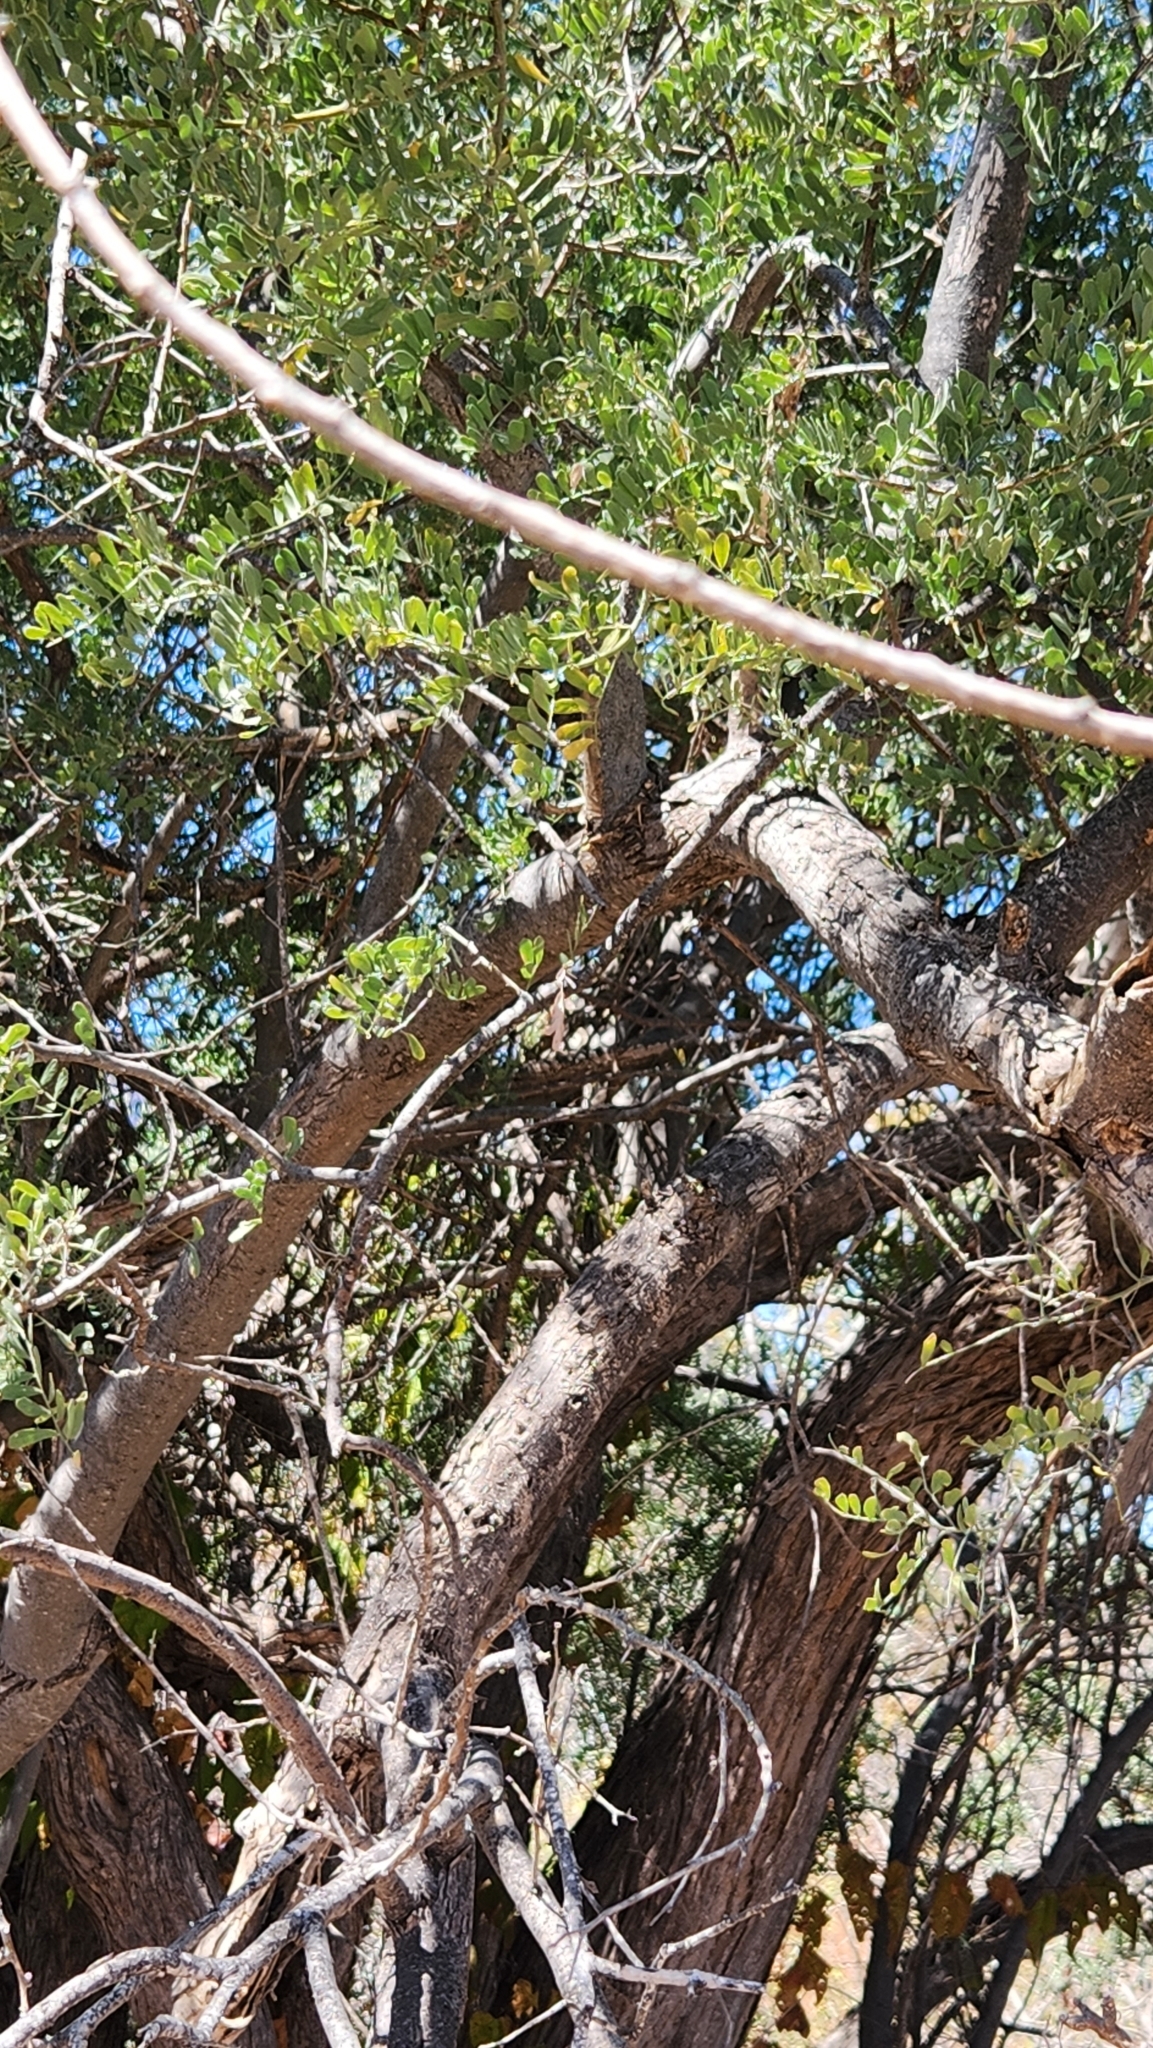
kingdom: Plantae
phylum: Tracheophyta
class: Magnoliopsida
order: Fabales
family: Fabaceae
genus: Olneya
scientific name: Olneya tesota
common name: Desert ironwood
